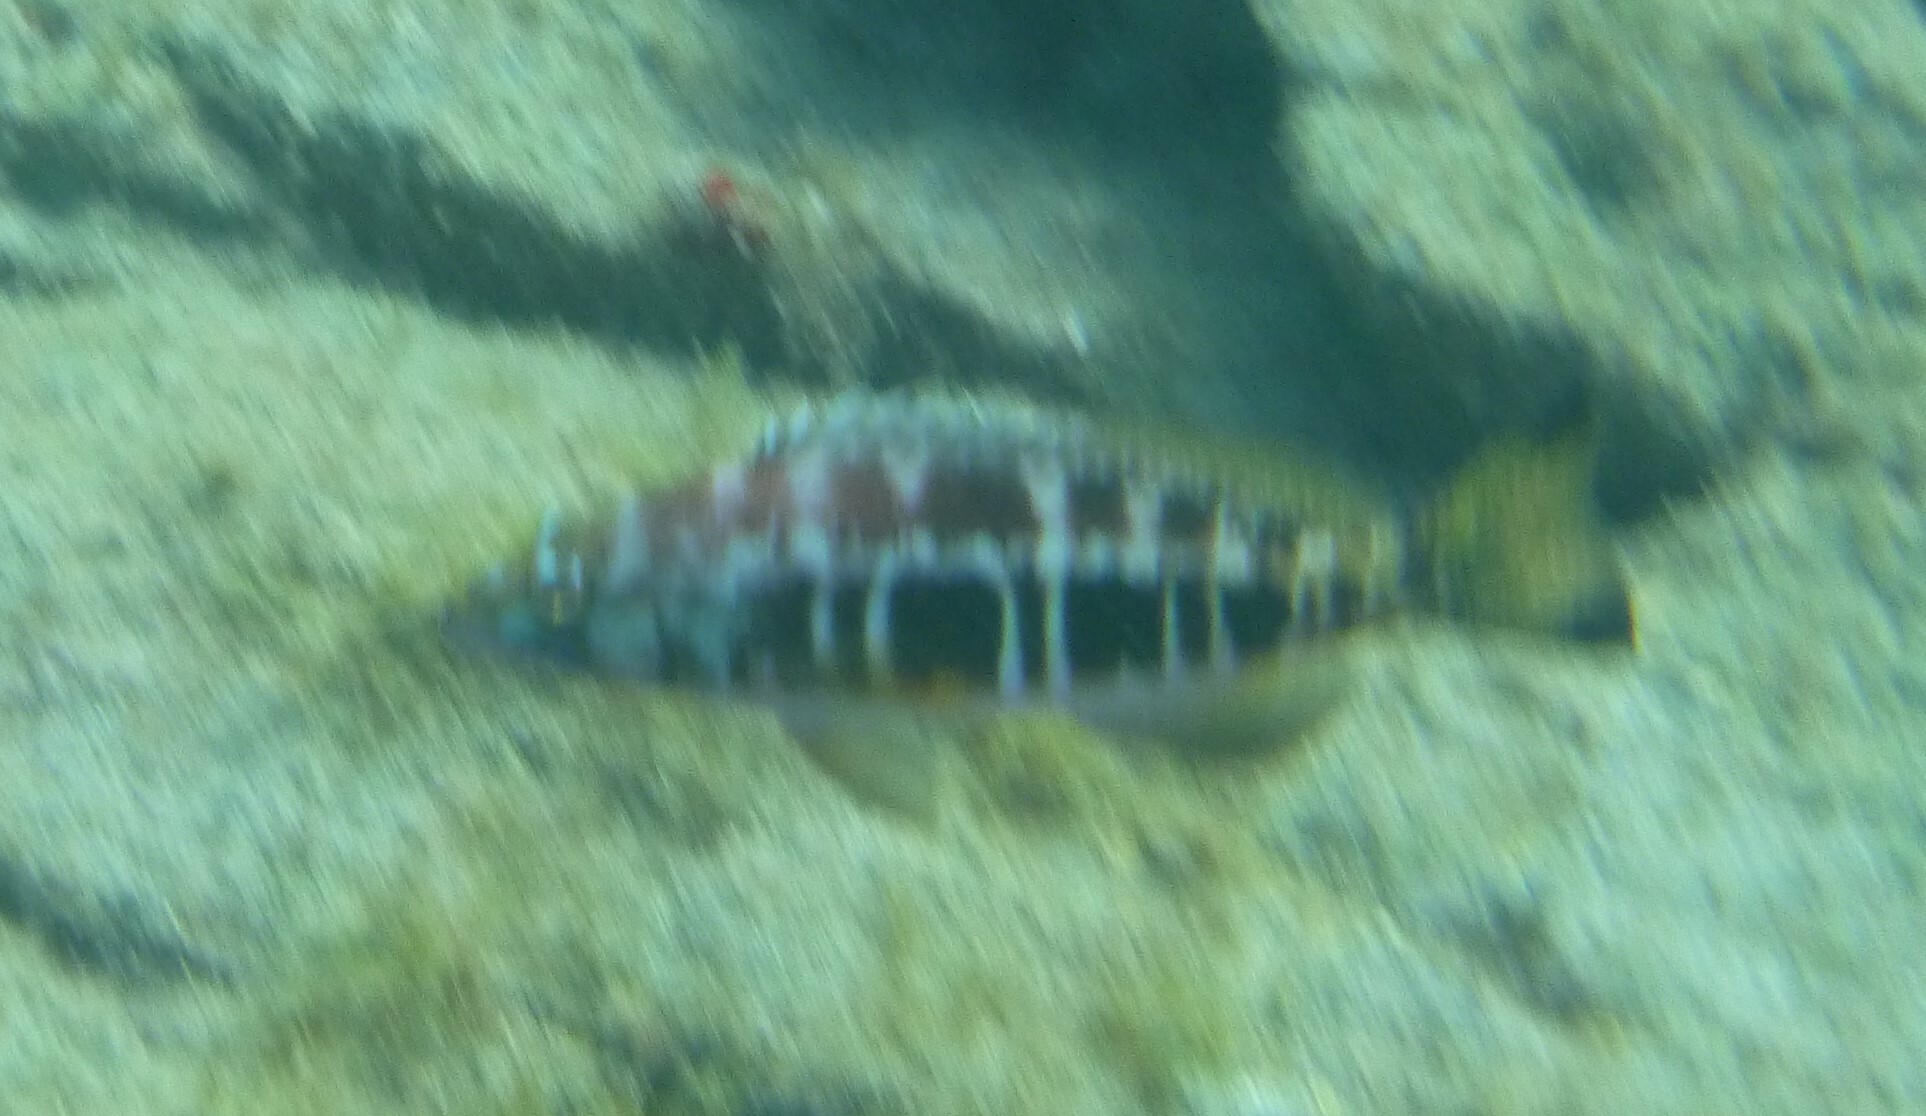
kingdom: Animalia
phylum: Chordata
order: Perciformes
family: Serranidae
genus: Serranus
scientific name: Serranus atricauda
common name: Blacktail comber
